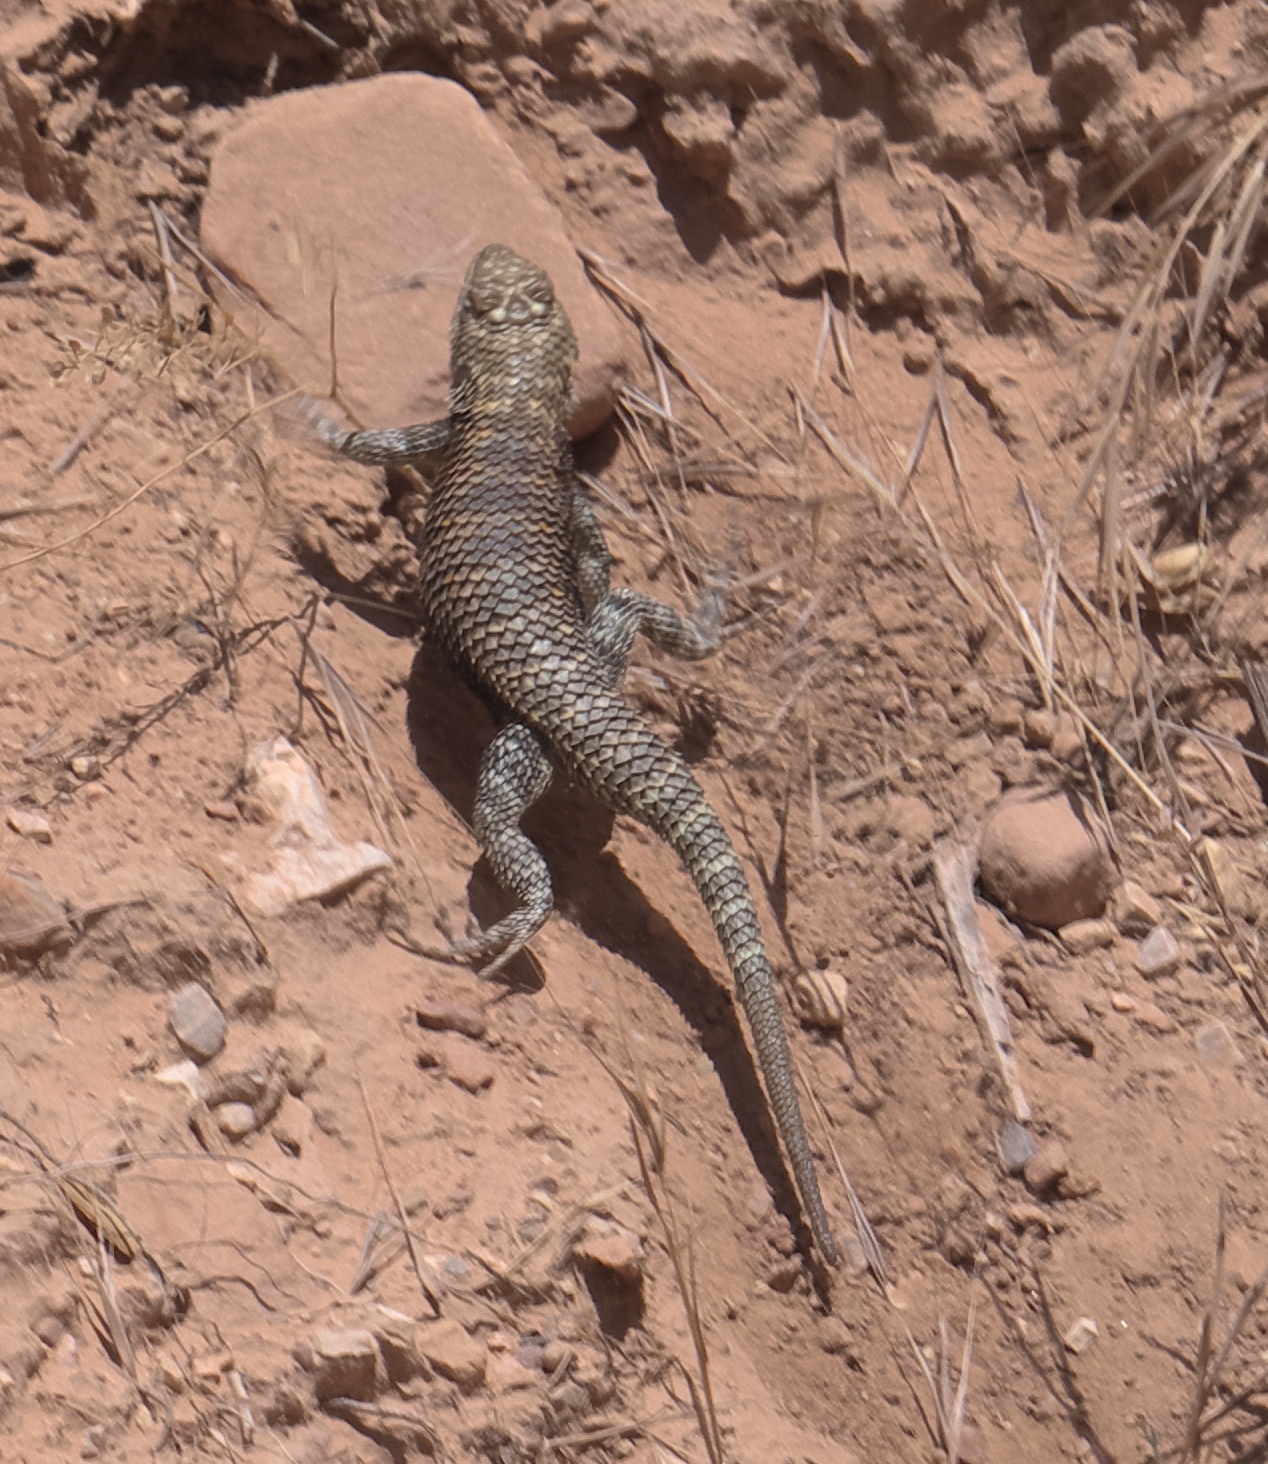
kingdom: Animalia
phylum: Chordata
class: Squamata
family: Phrynosomatidae
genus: Sceloporus
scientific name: Sceloporus magister
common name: Desert spiny lizard
